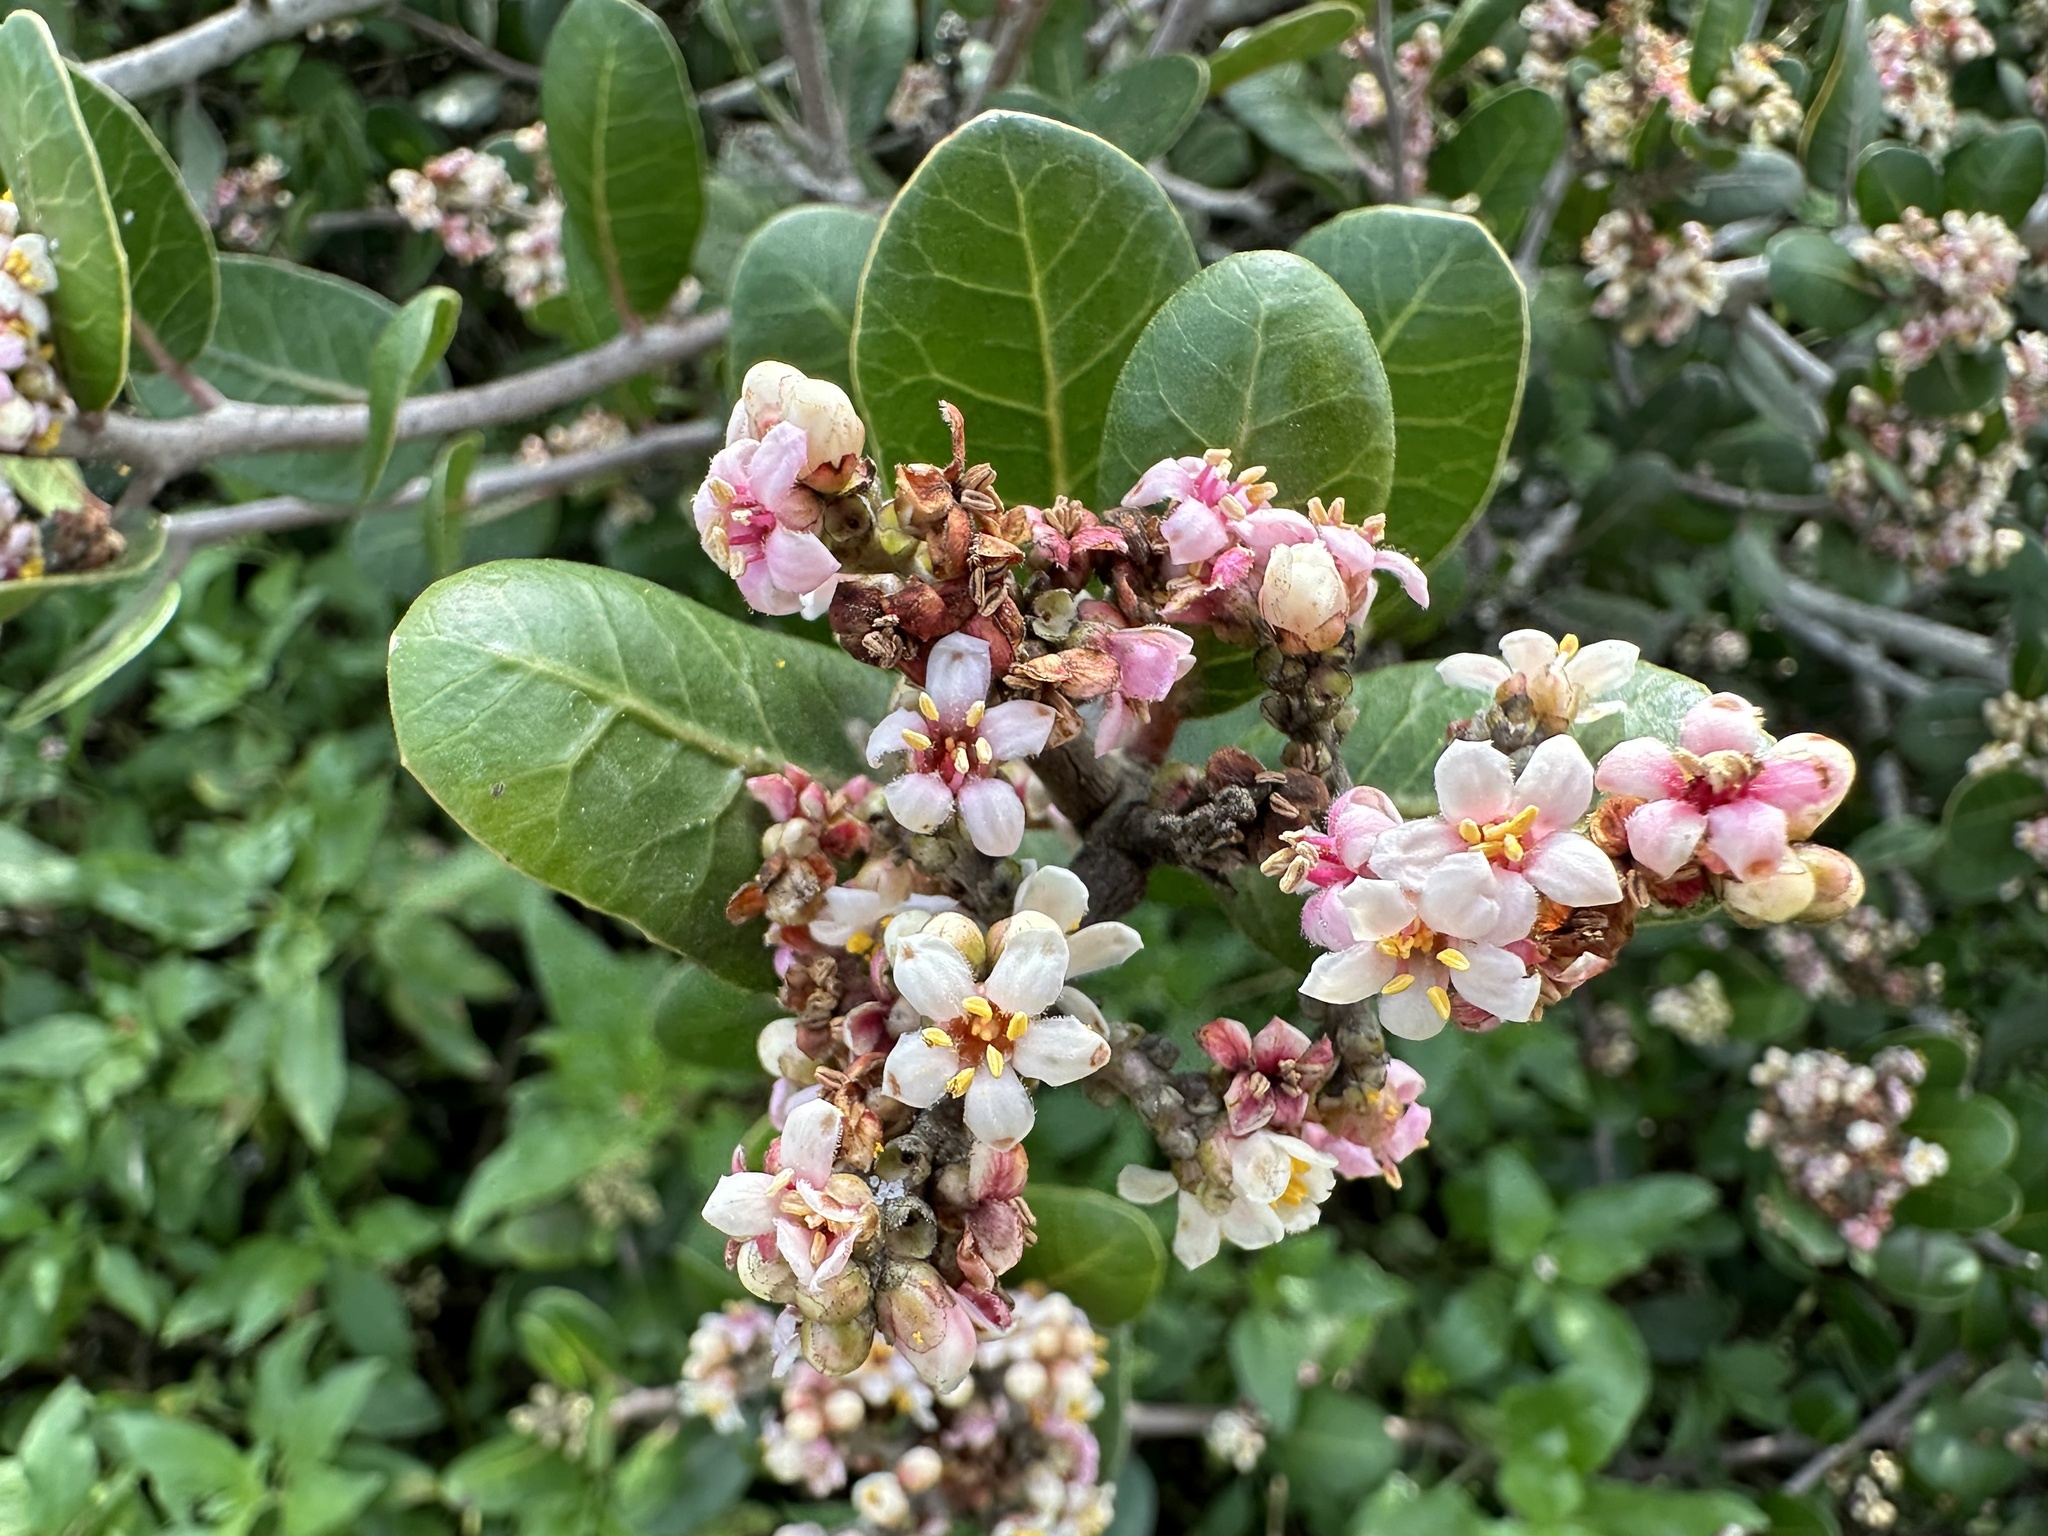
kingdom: Plantae
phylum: Tracheophyta
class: Magnoliopsida
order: Sapindales
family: Anacardiaceae
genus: Rhus
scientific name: Rhus integrifolia
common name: Lemonade sumac
